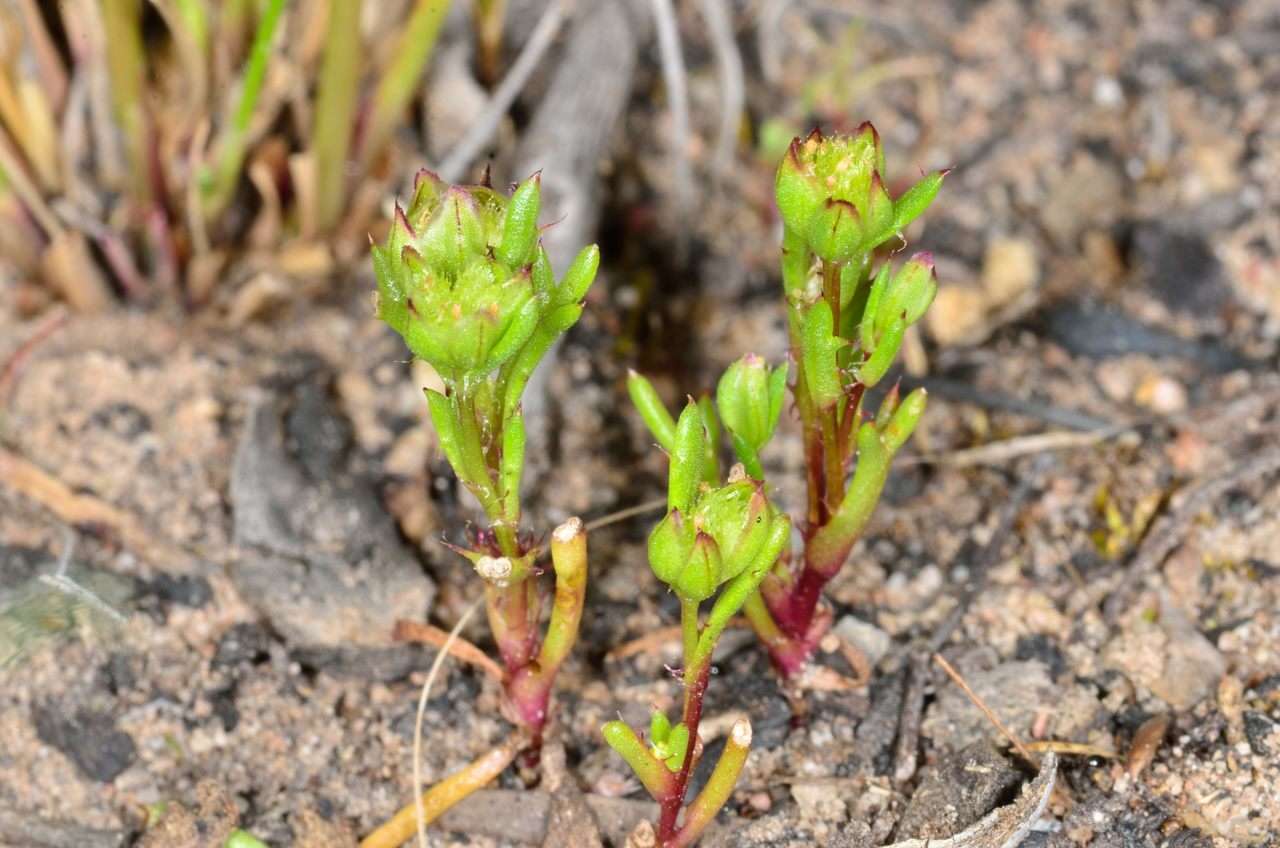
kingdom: Plantae
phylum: Tracheophyta
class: Magnoliopsida
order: Asterales
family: Asteraceae
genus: Brachyscome
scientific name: Brachyscome perpusilla
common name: Tiny daisy
